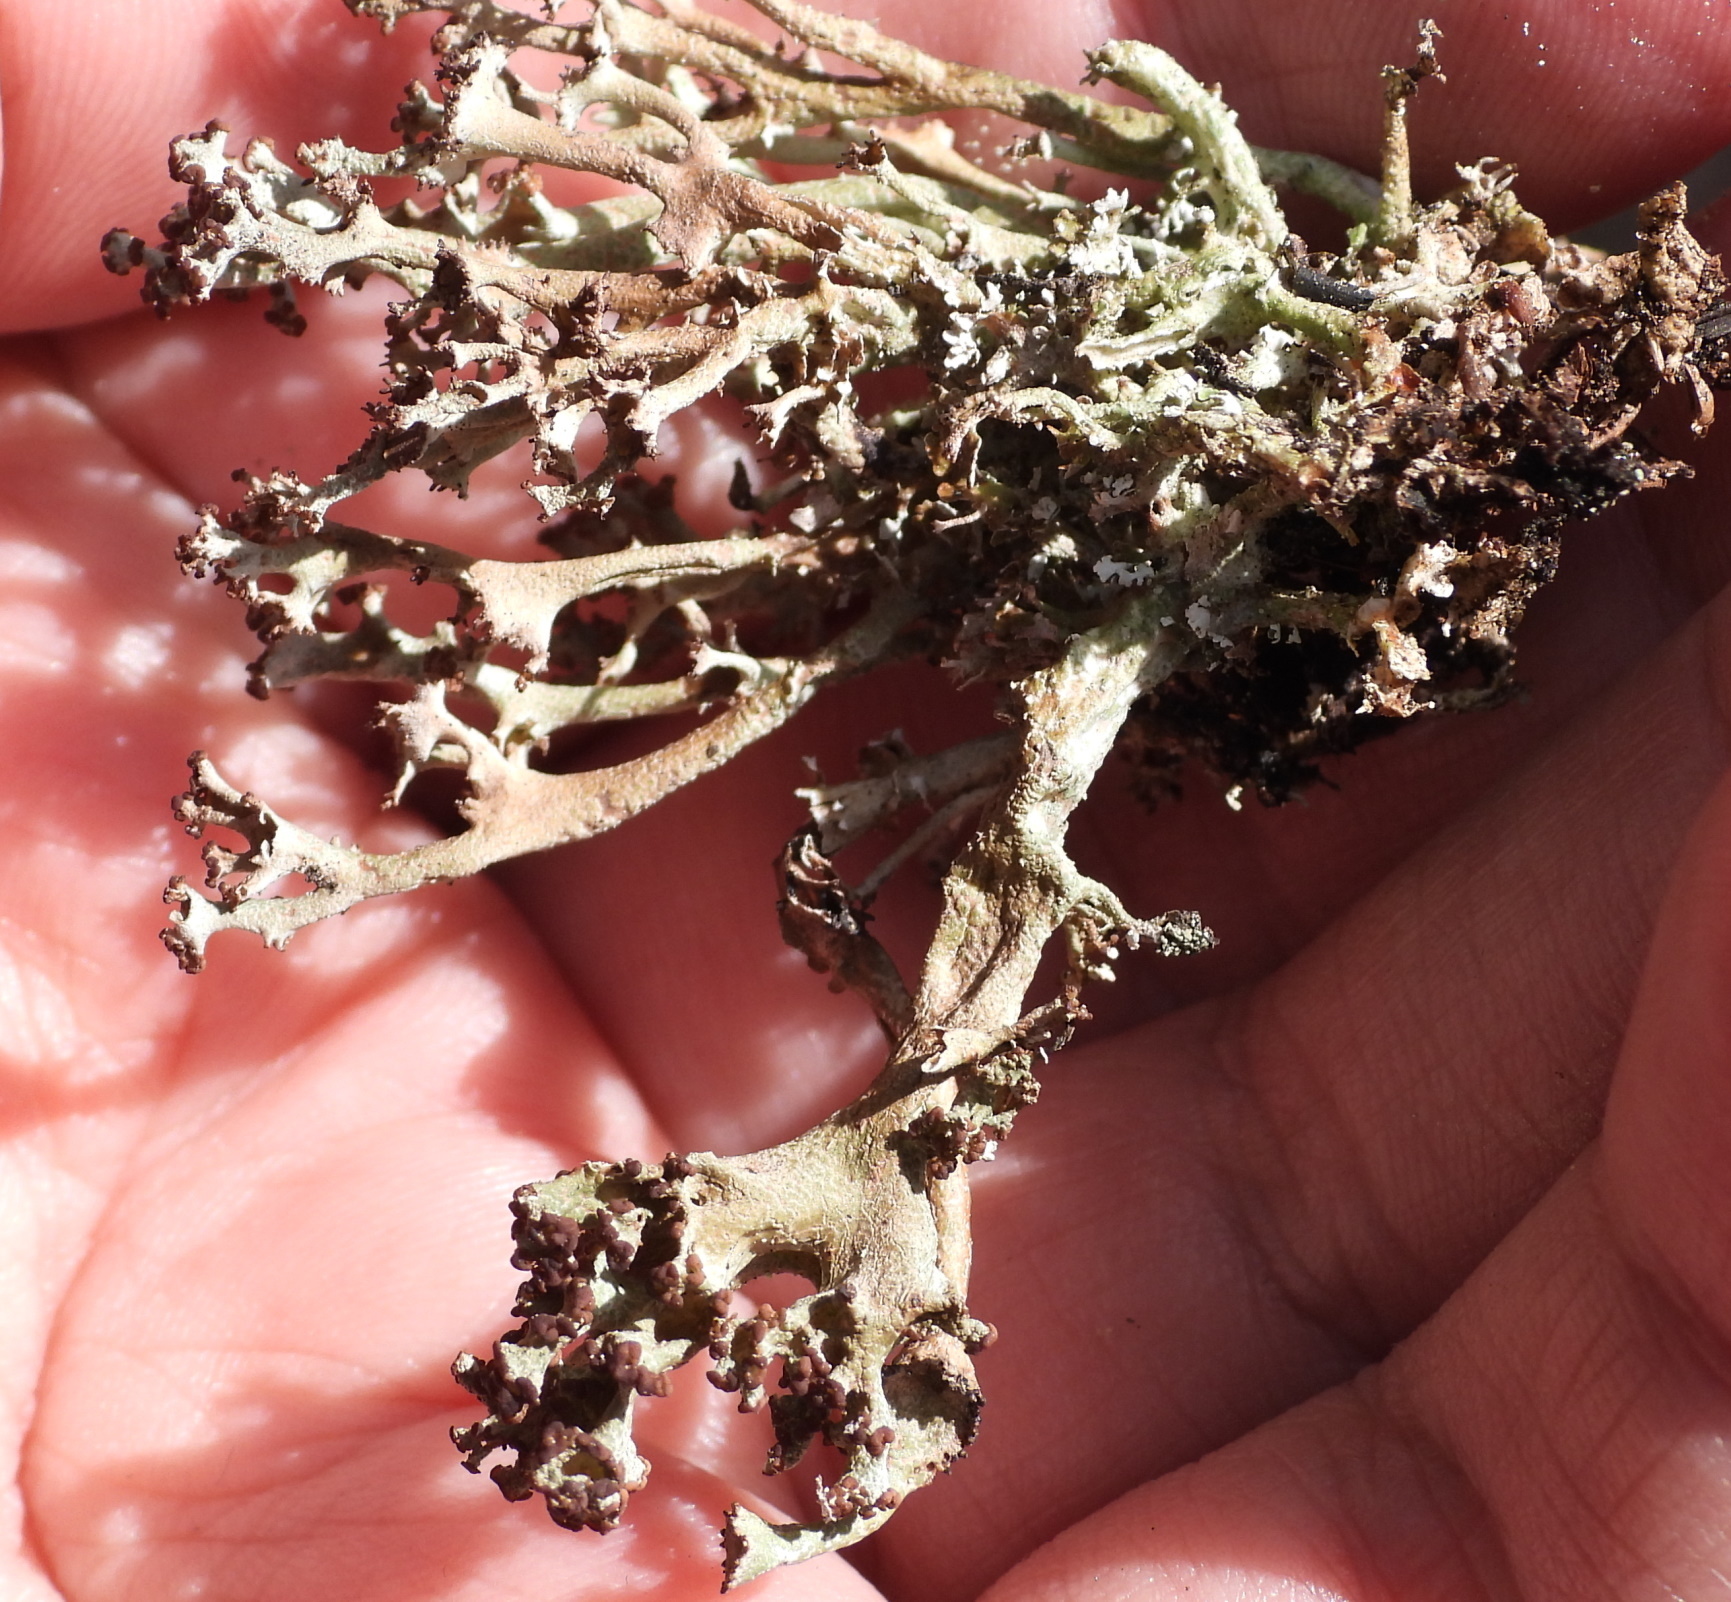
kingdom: Fungi
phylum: Ascomycota
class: Lecanoromycetes
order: Lecanorales
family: Cladoniaceae
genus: Cladonia
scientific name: Cladonia crispata
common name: Organ-pipe lichen
